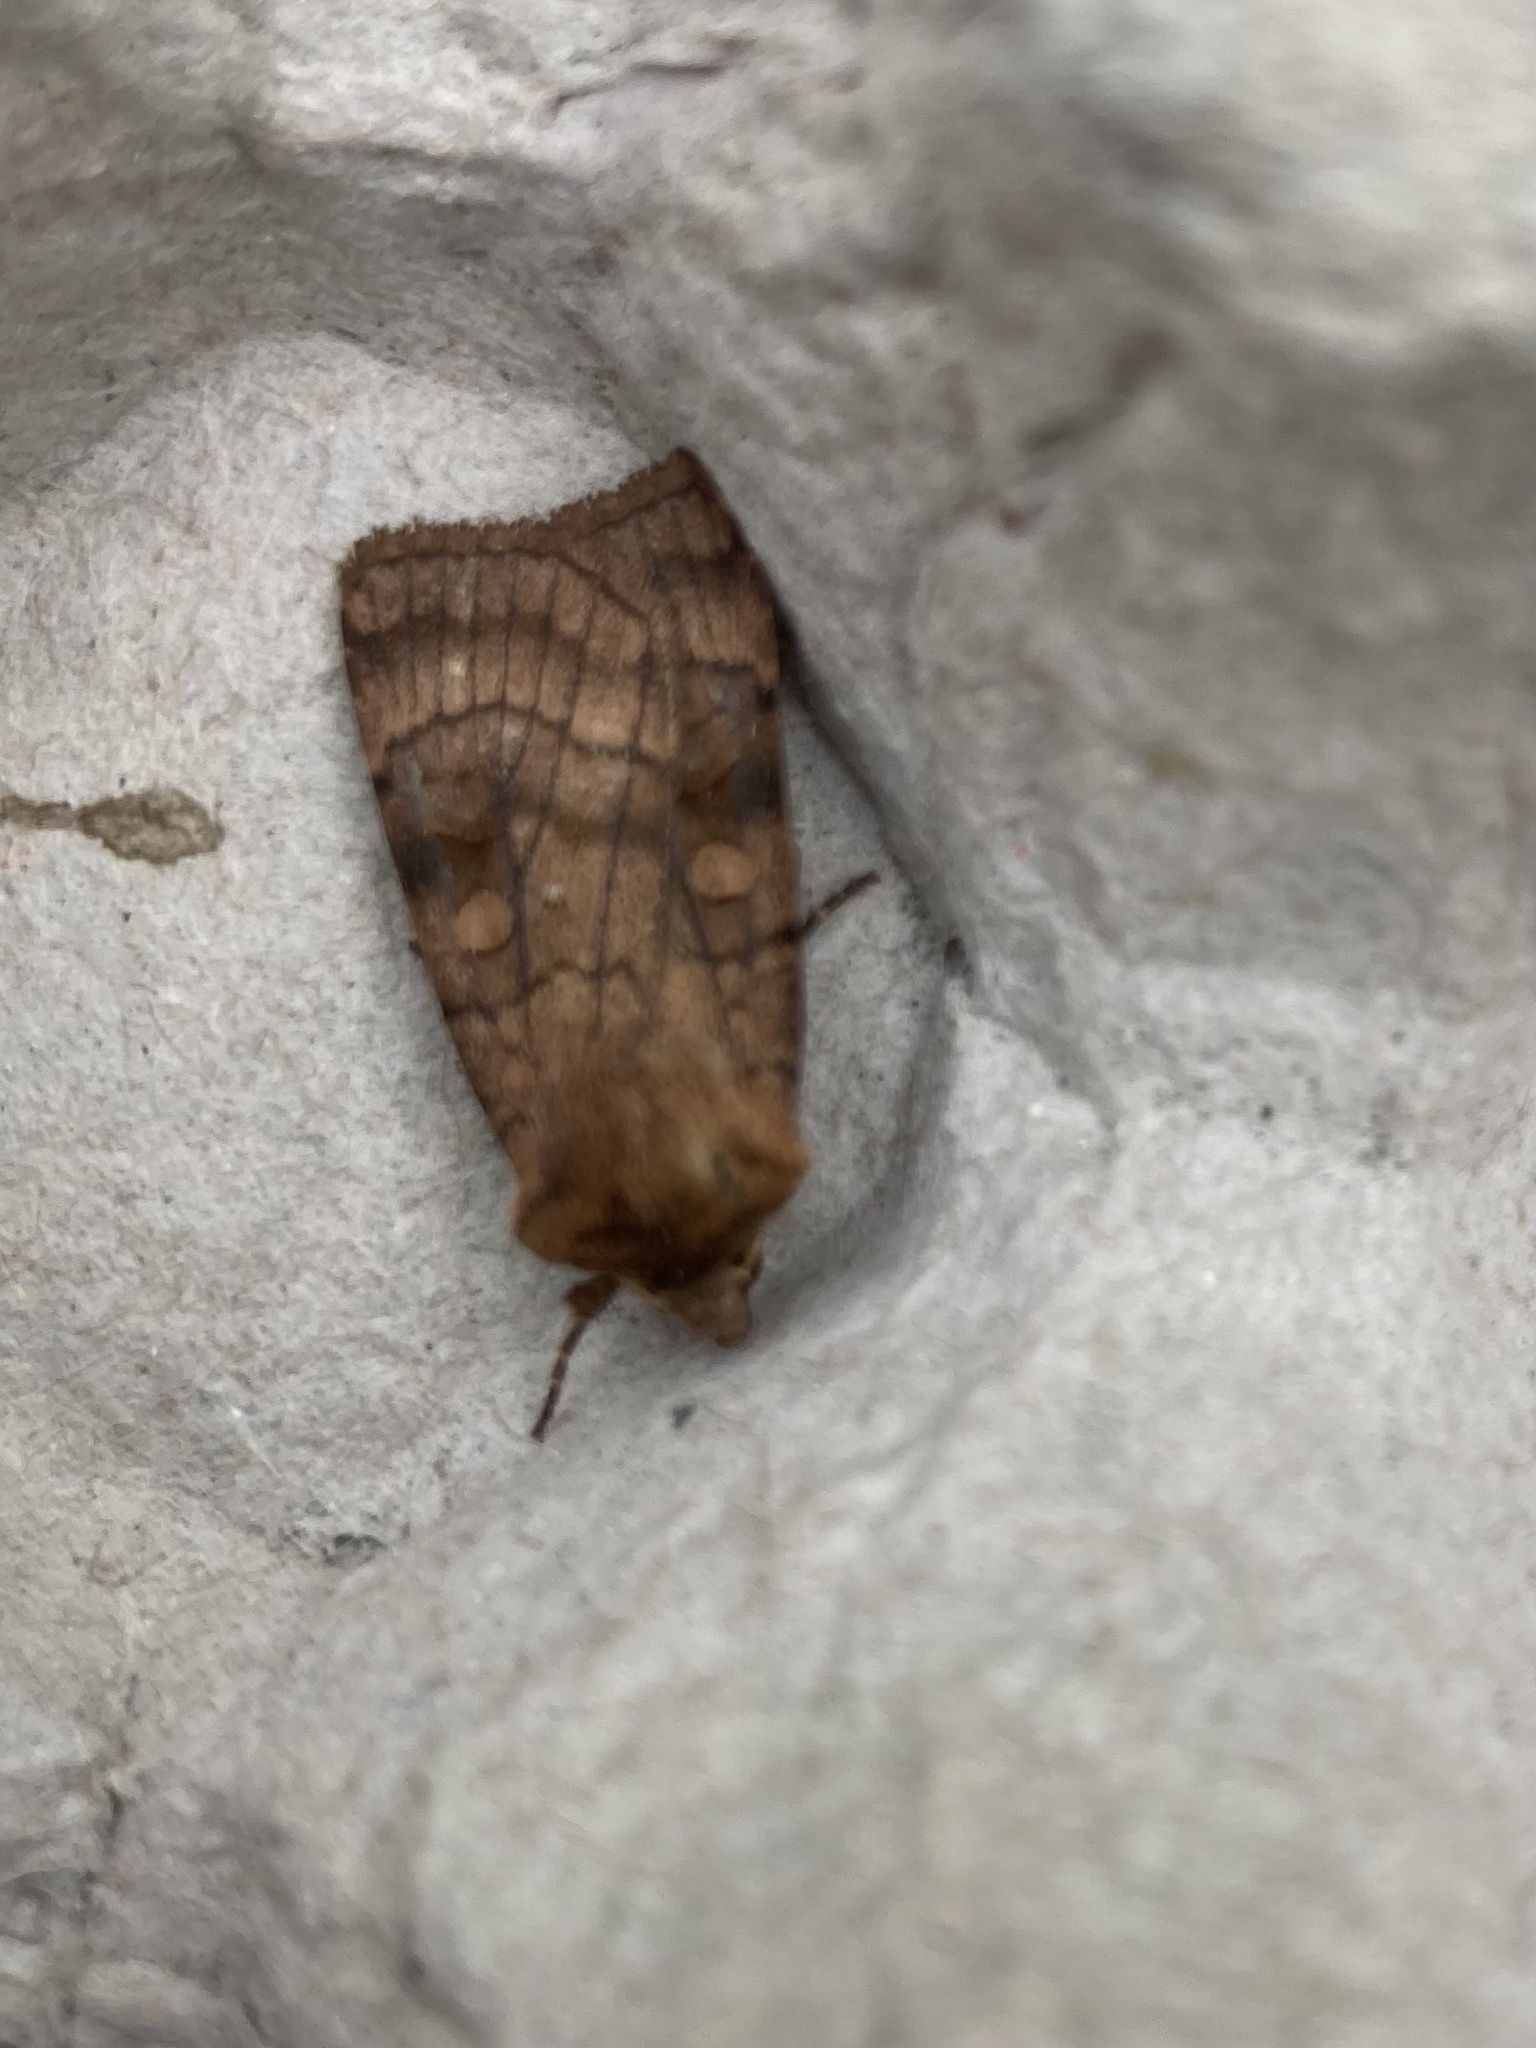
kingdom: Animalia
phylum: Arthropoda
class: Insecta
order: Lepidoptera
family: Noctuidae
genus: Xestia
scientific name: Xestia sexstrigata
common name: Six-striped rustic
